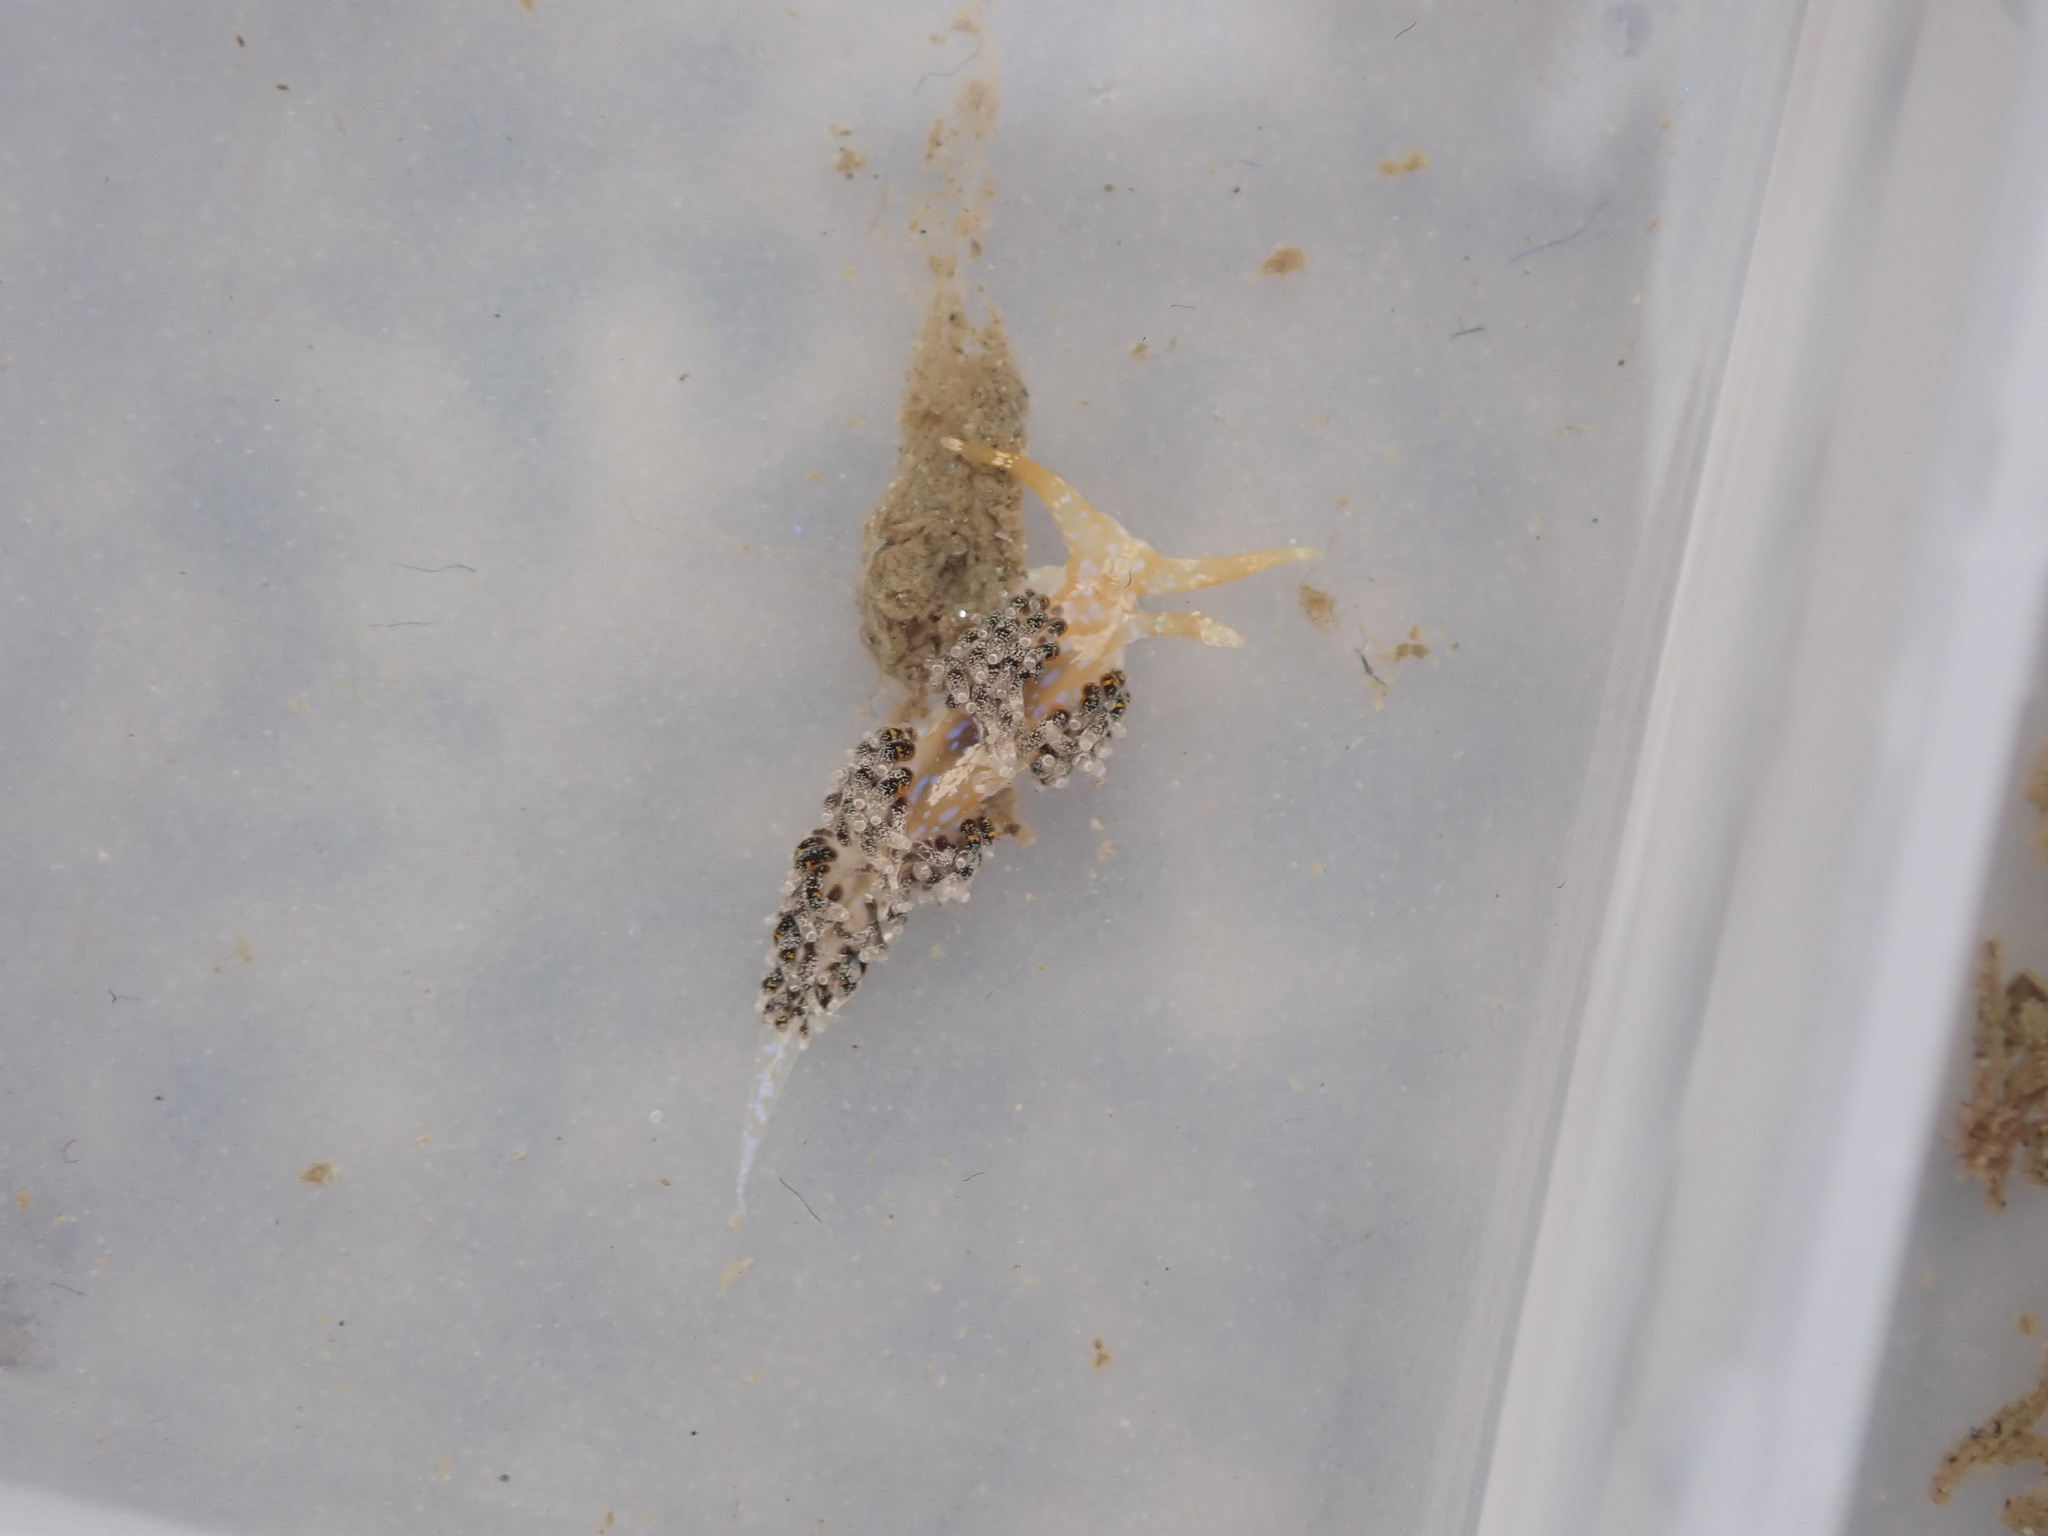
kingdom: Animalia
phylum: Mollusca
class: Gastropoda
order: Nudibranchia
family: Facelinidae
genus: Austraeolis
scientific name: Austraeolis ornata
